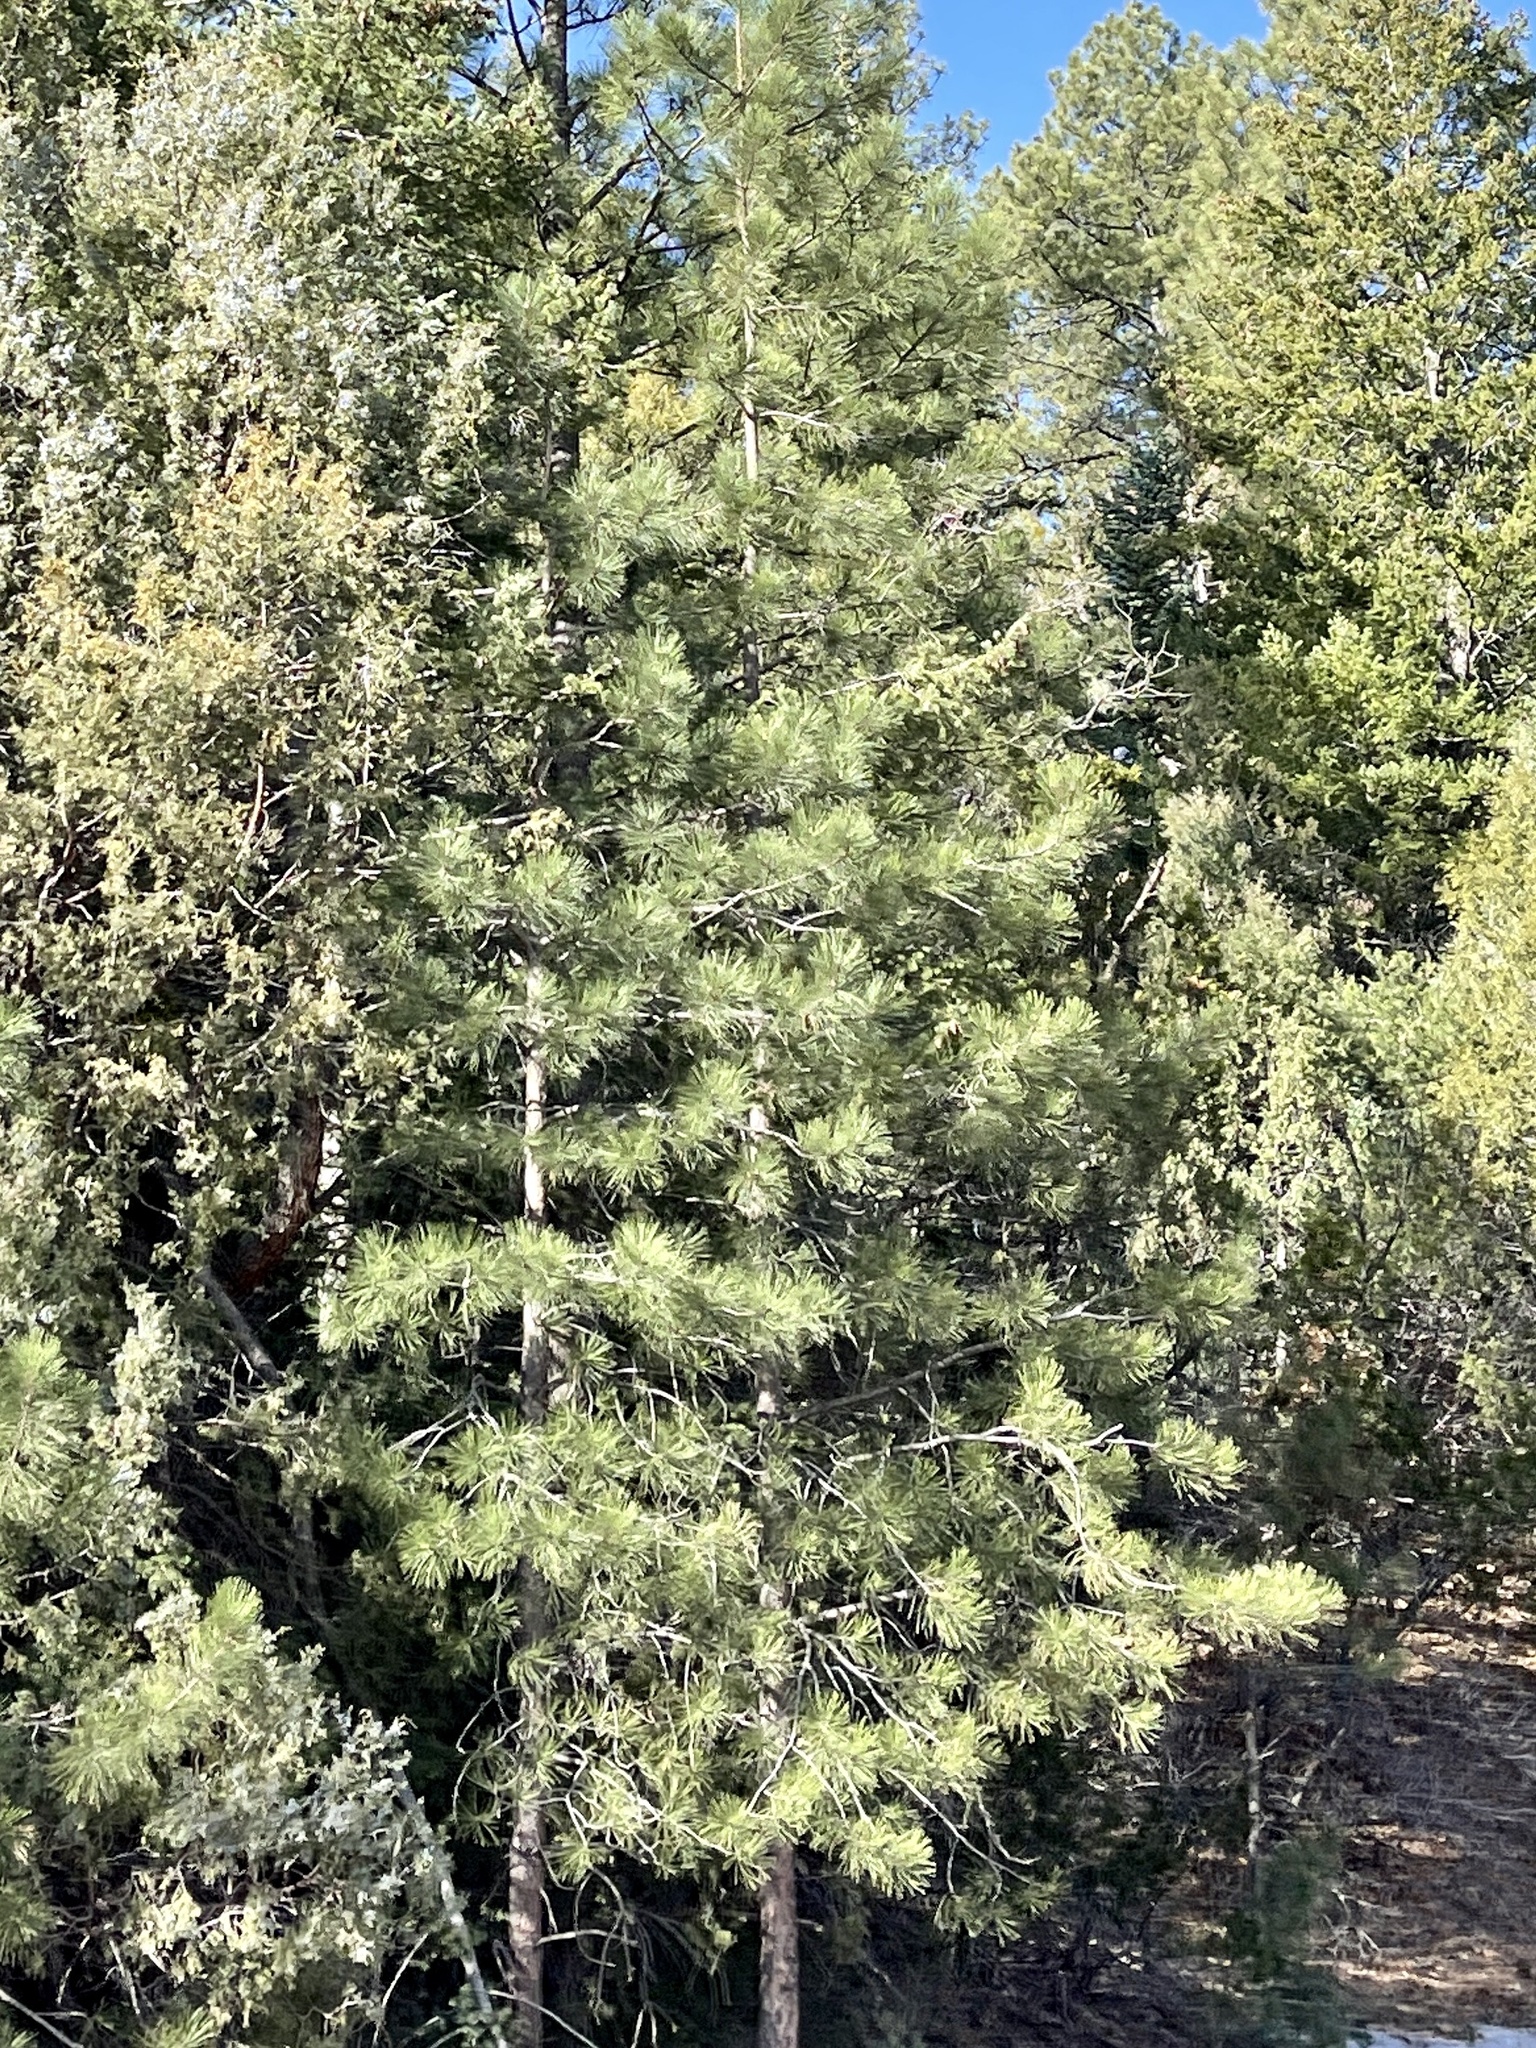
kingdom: Plantae
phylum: Tracheophyta
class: Pinopsida
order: Pinales
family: Pinaceae
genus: Pinus
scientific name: Pinus ponderosa
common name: Western yellow-pine
